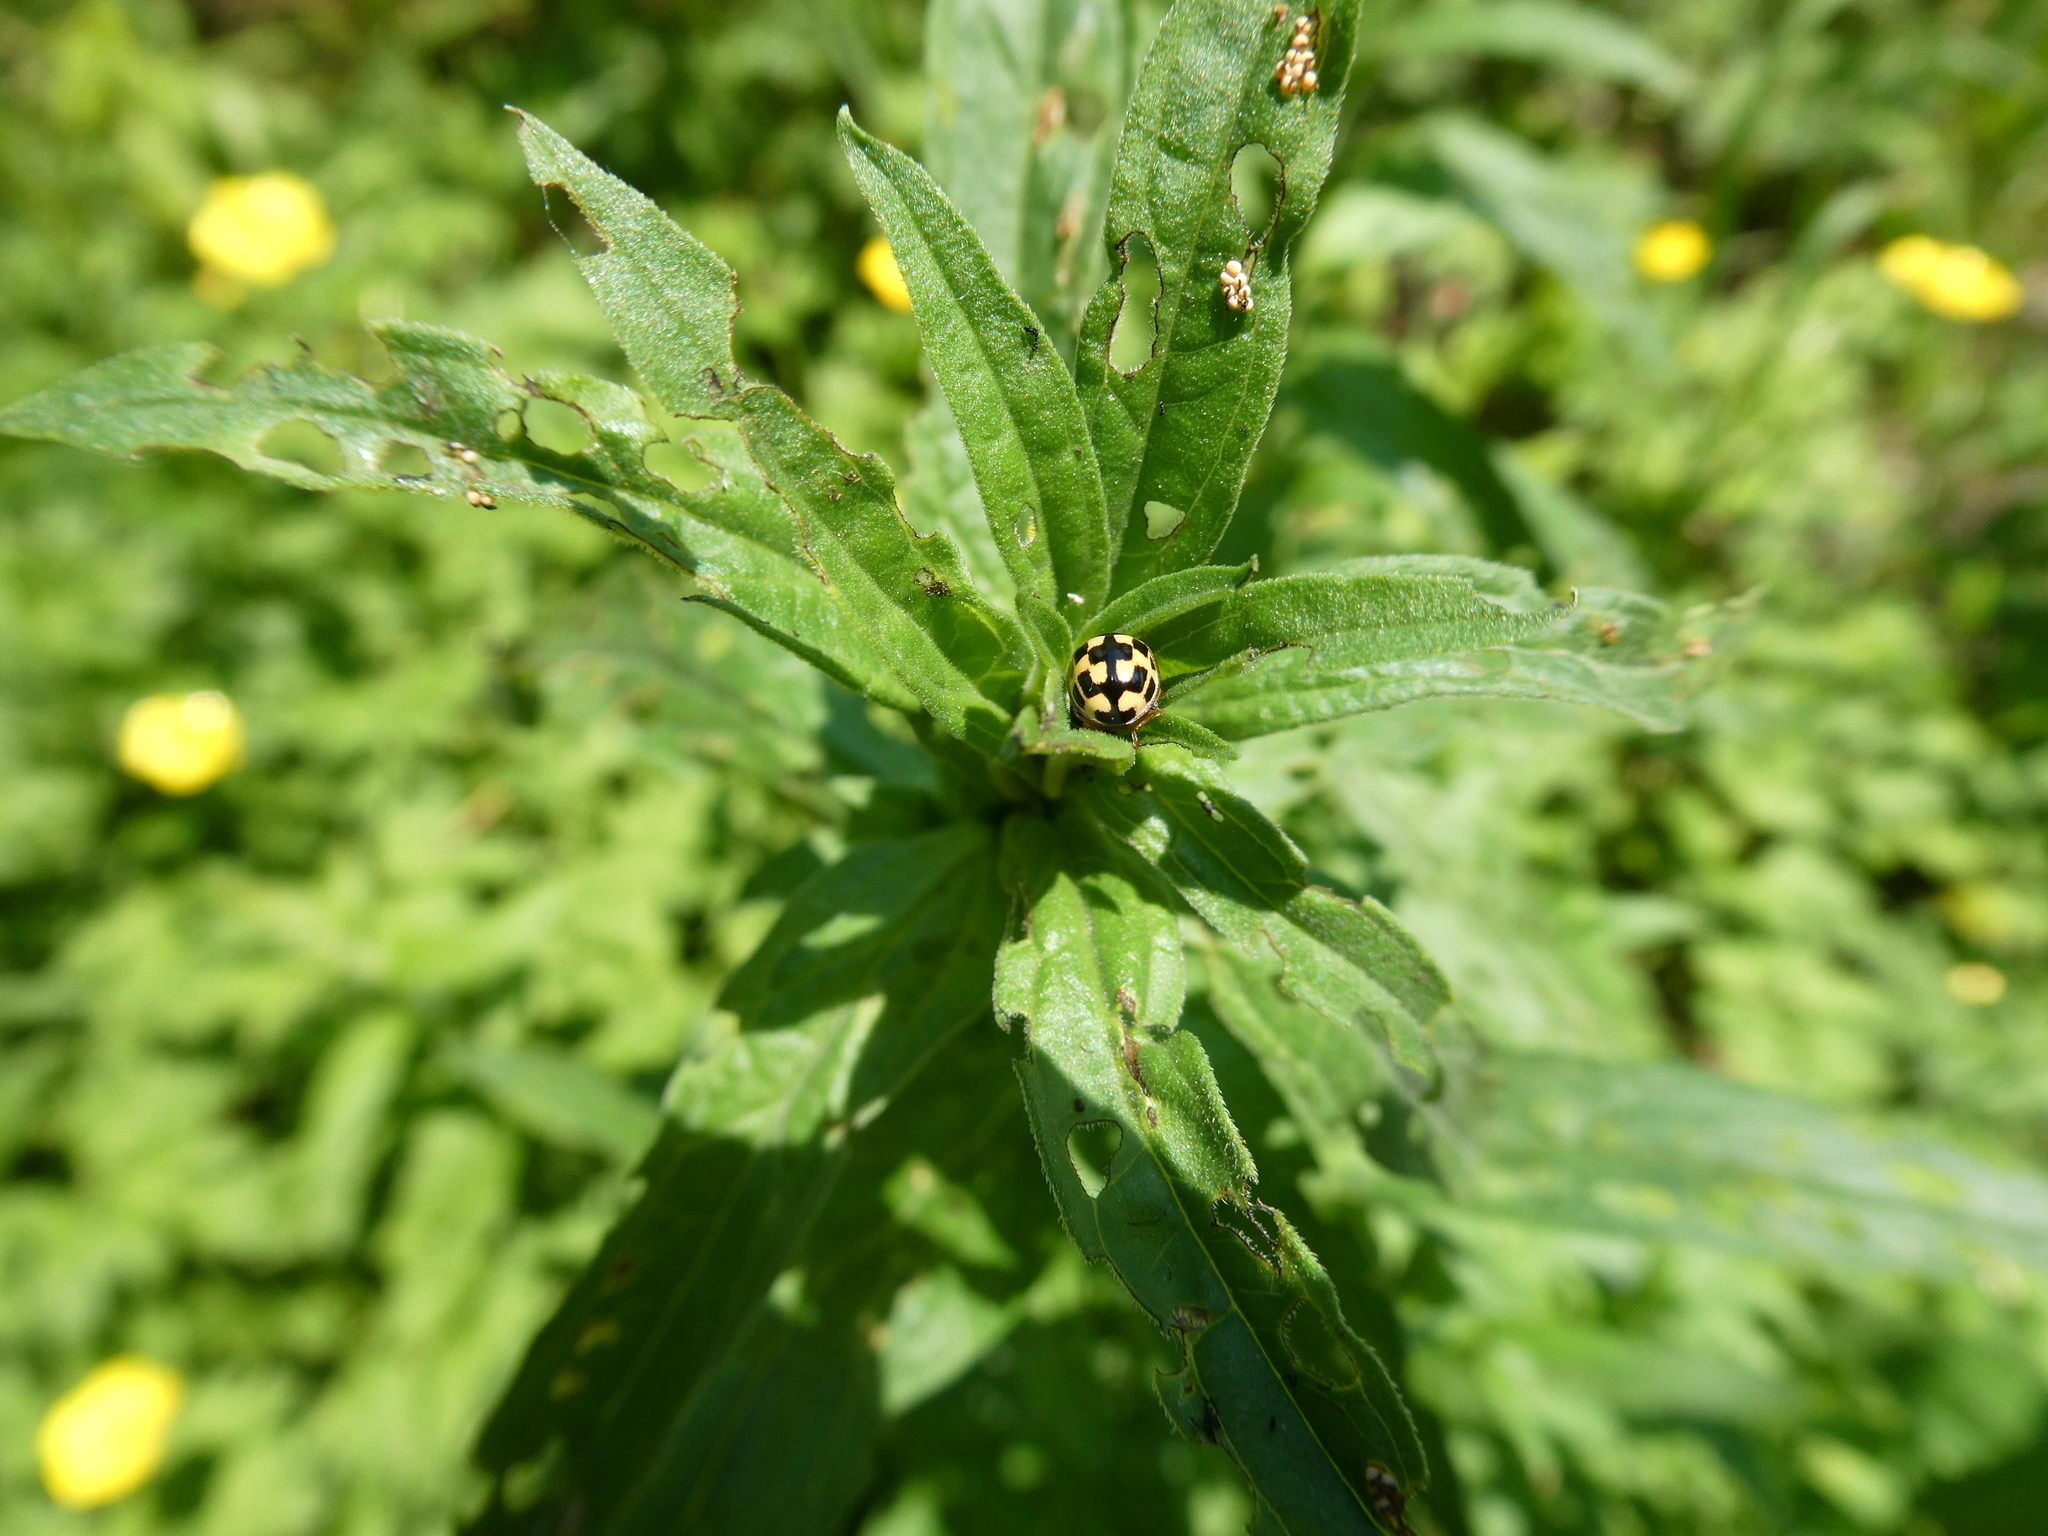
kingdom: Animalia
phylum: Arthropoda
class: Insecta
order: Coleoptera
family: Coccinellidae
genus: Propylaea
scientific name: Propylaea quatuordecimpunctata
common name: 14-spotted ladybird beetle
